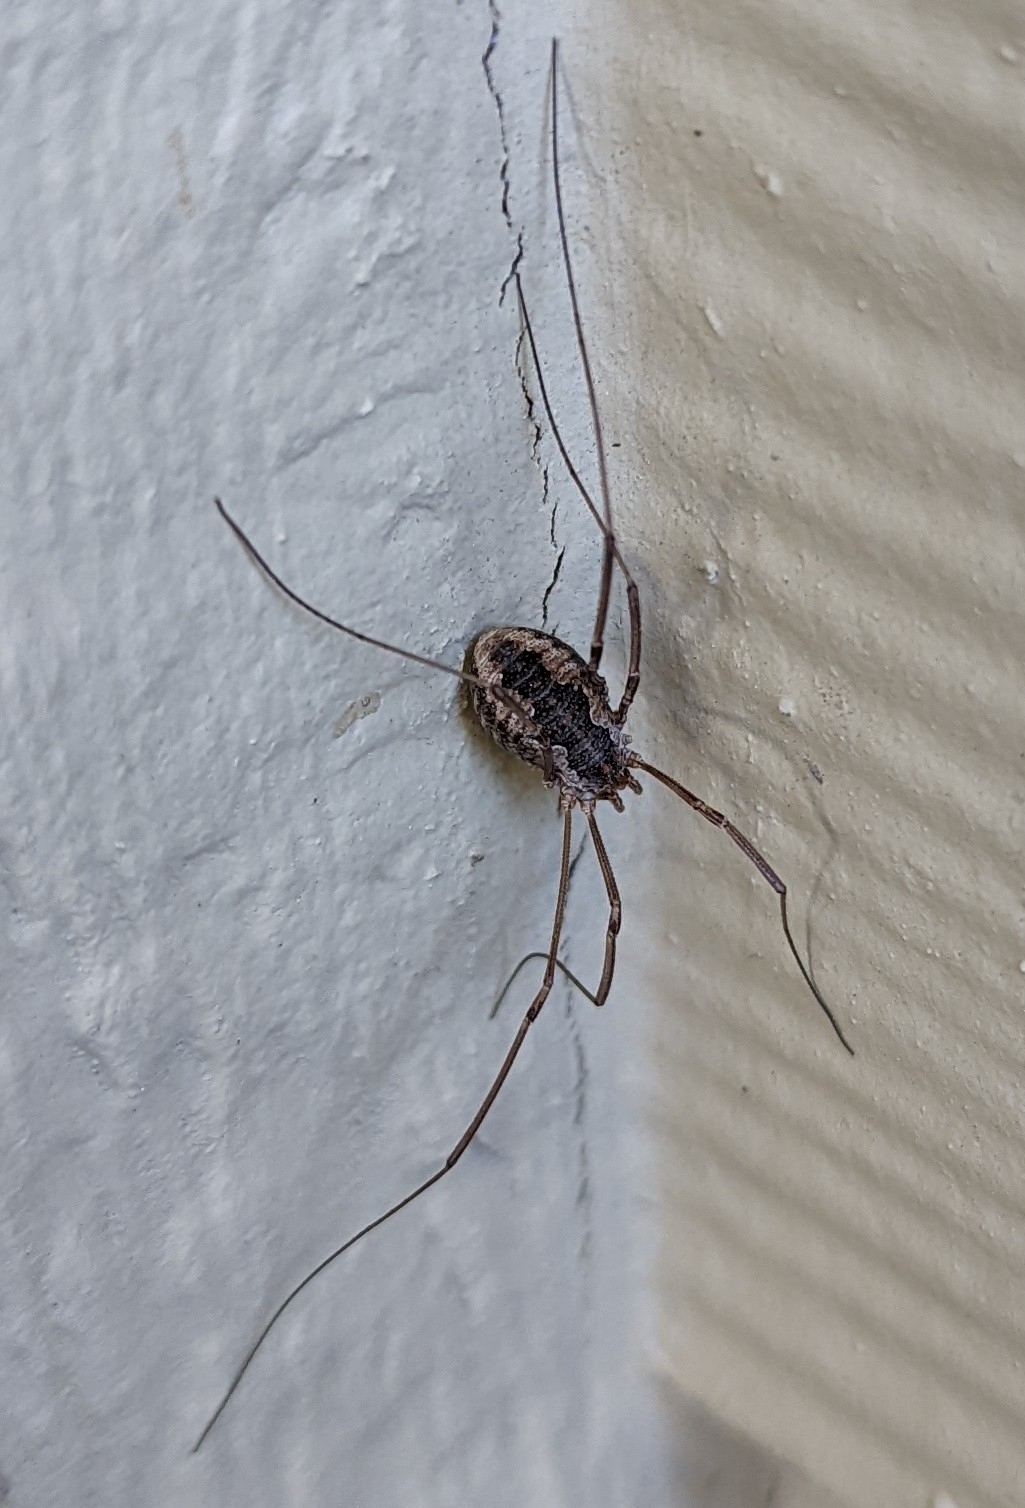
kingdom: Animalia
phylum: Arthropoda
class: Arachnida
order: Opiliones
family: Phalangiidae
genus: Phalangium
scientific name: Phalangium opilio
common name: Daddy longleg
